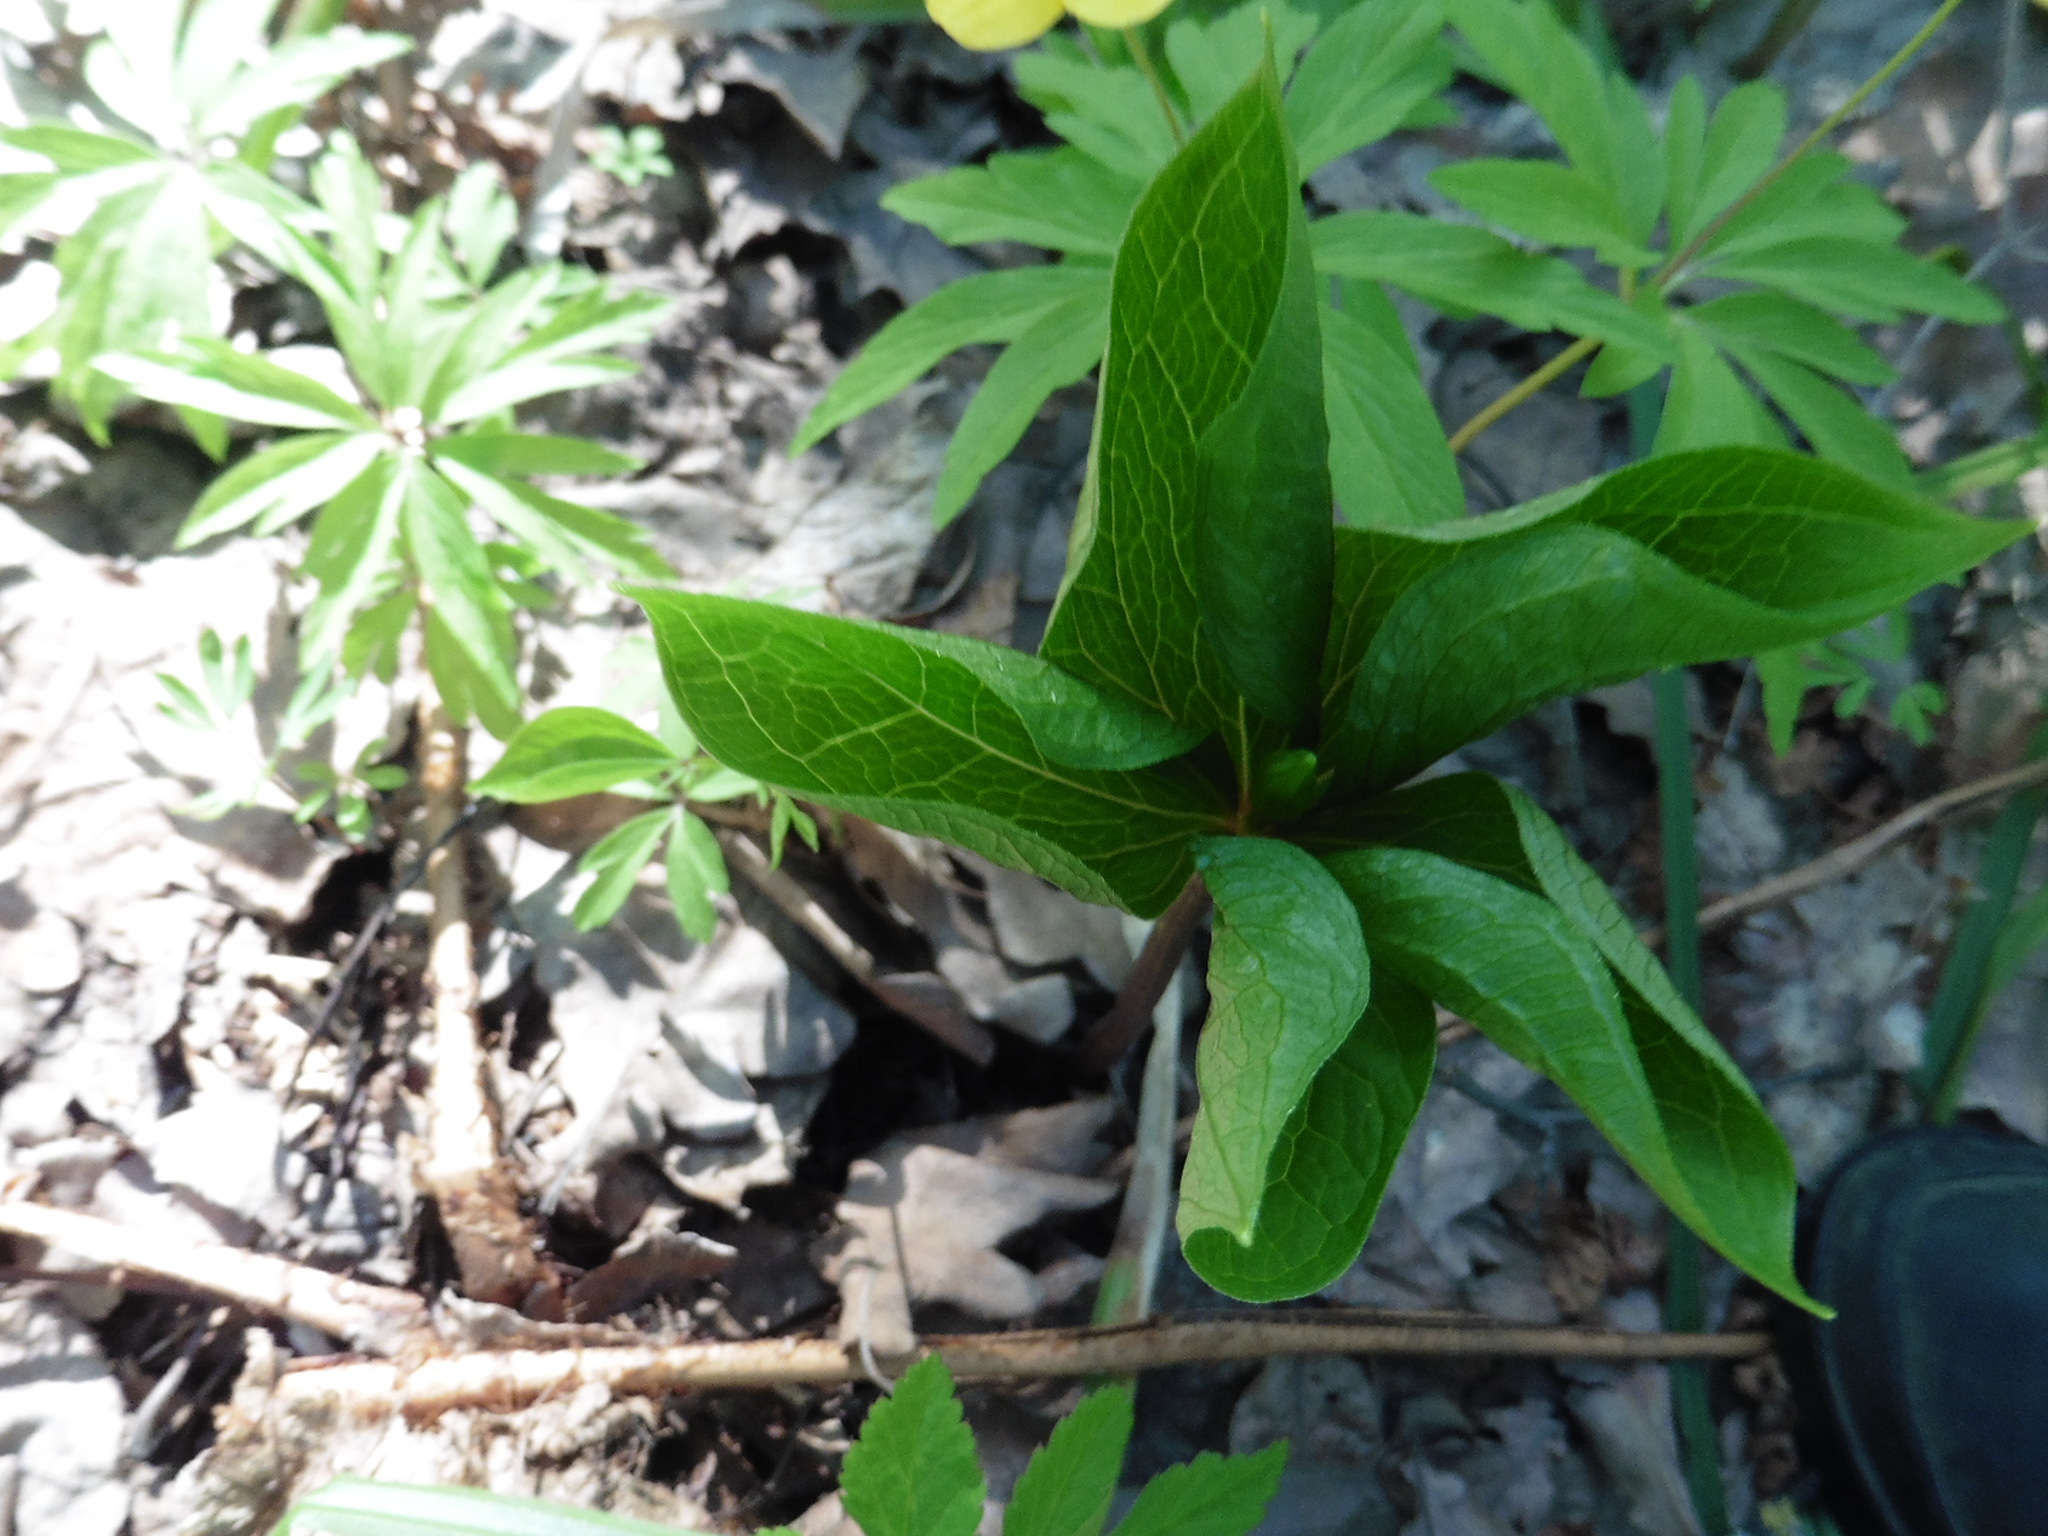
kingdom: Plantae
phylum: Tracheophyta
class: Liliopsida
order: Liliales
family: Melanthiaceae
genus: Paris
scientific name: Paris quadrifolia
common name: Herb-paris
